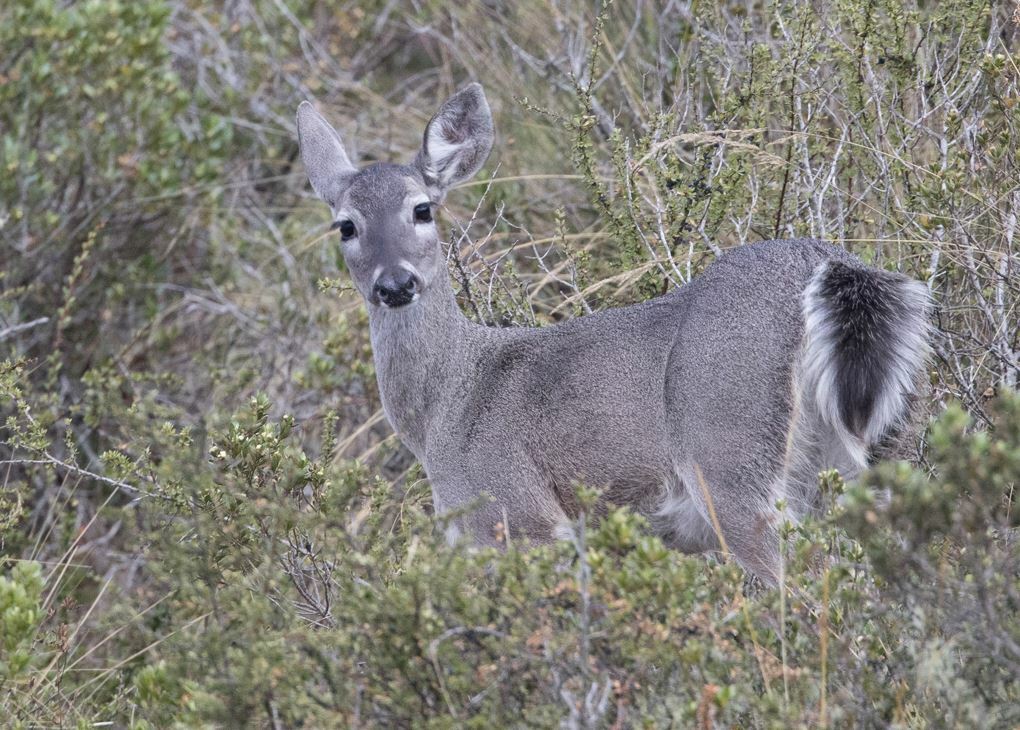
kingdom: Animalia
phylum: Chordata
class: Mammalia
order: Artiodactyla
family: Cervidae
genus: Odocoileus
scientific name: Odocoileus virginianus
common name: White-tailed deer
